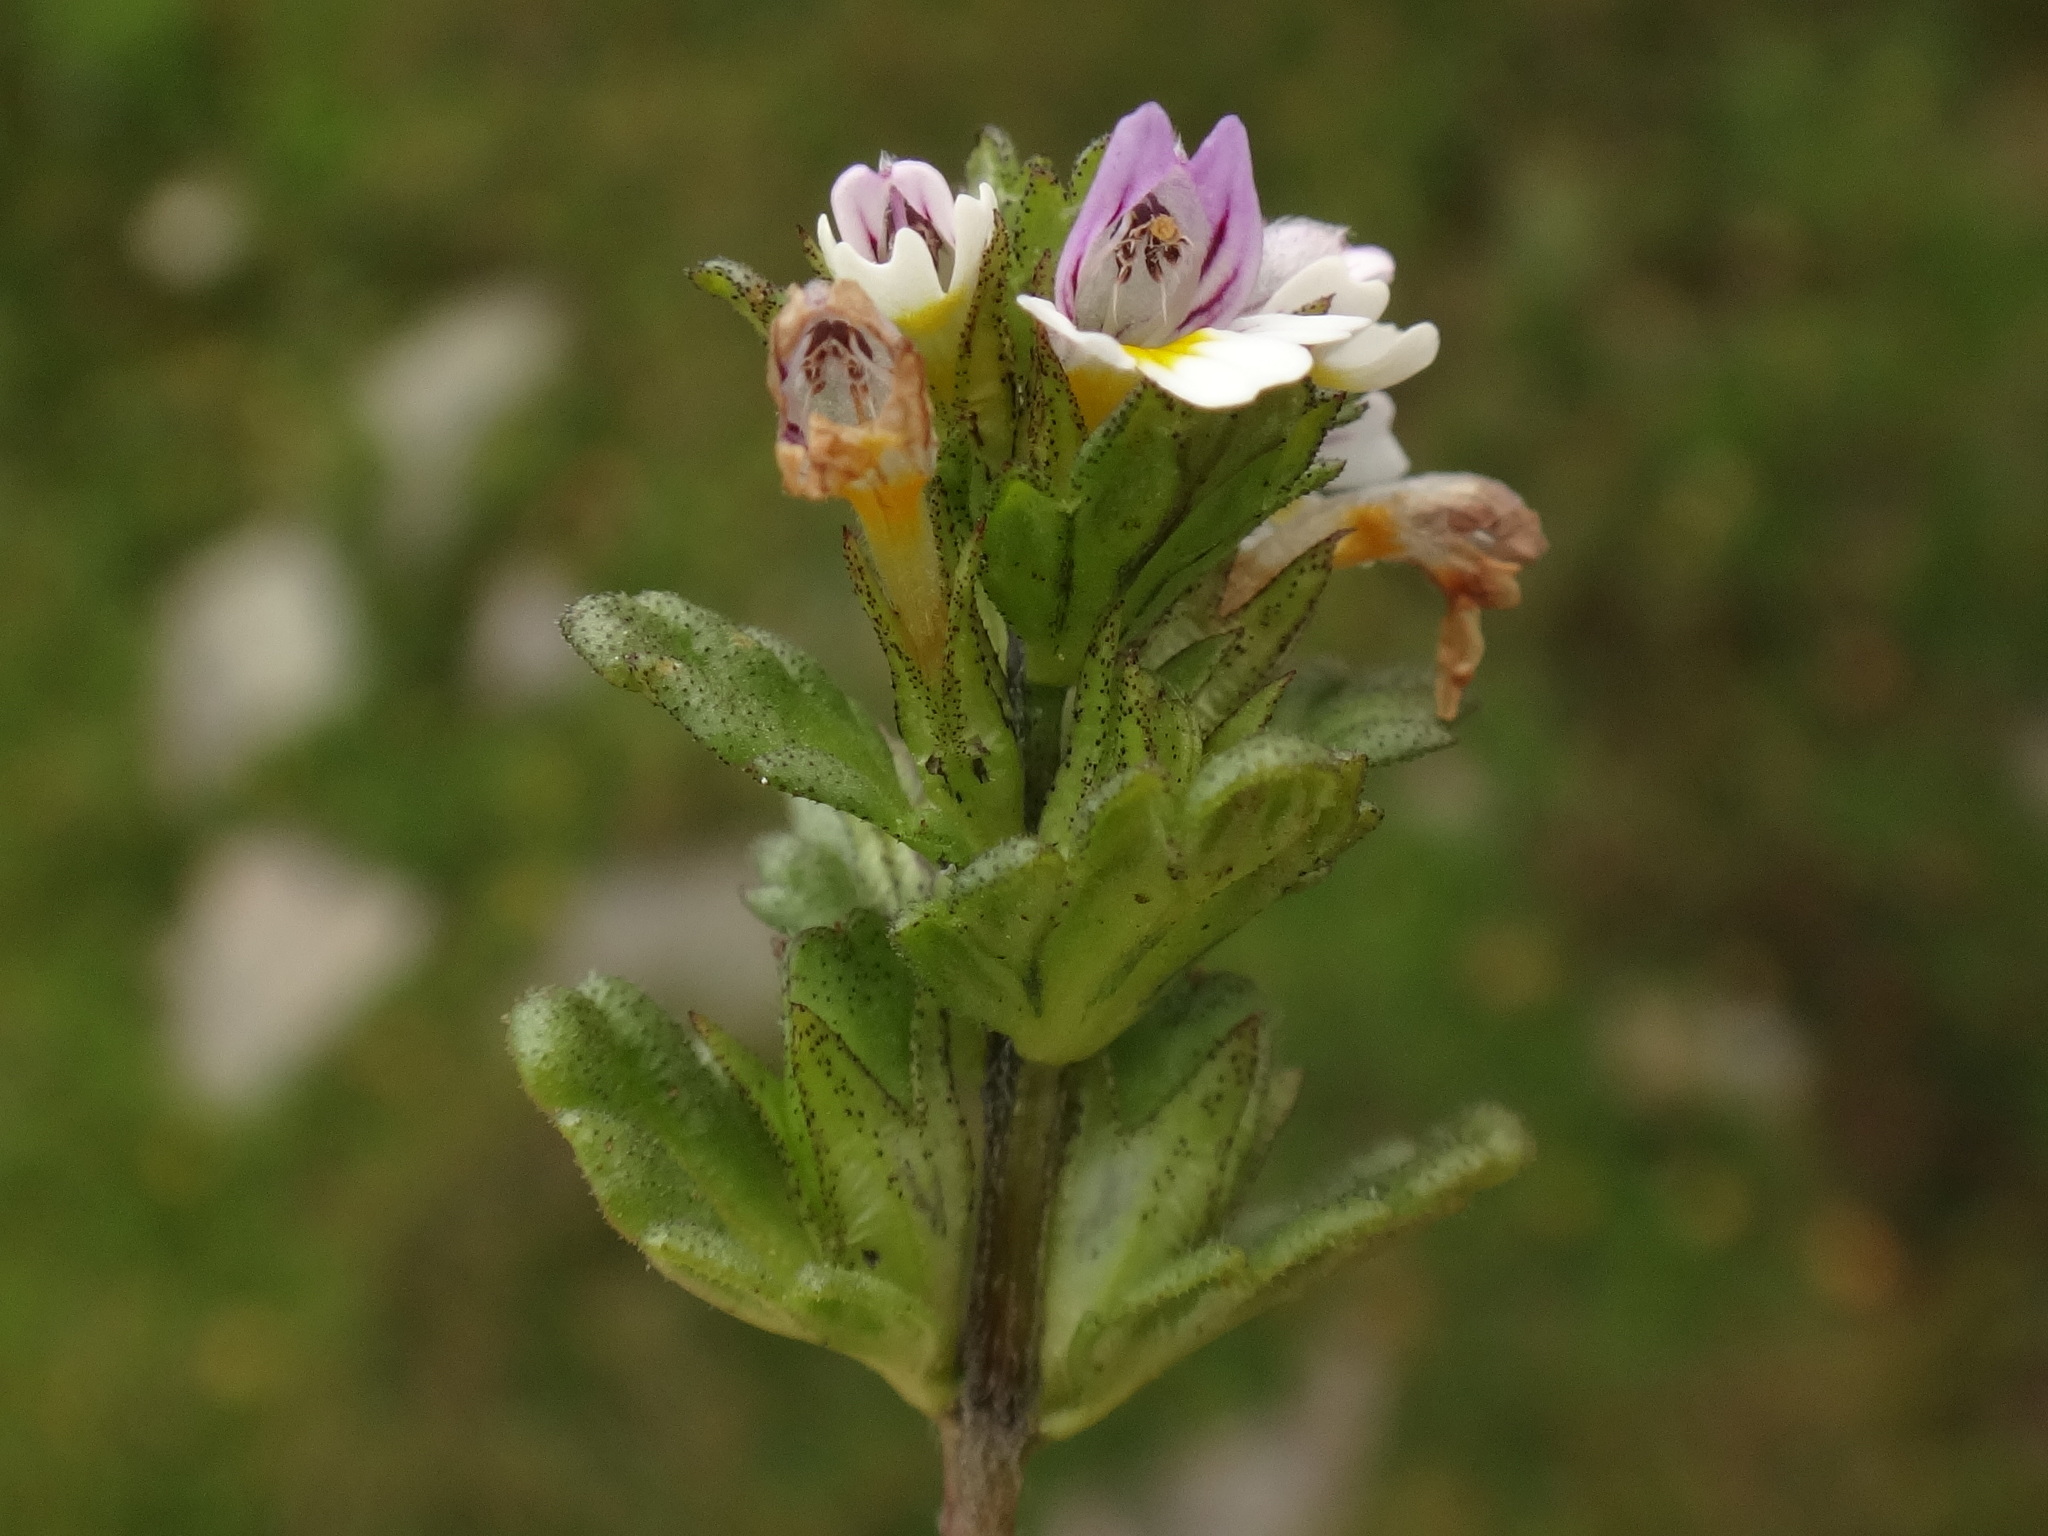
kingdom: Plantae
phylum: Tracheophyta
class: Magnoliopsida
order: Lamiales
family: Orobanchaceae
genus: Euphrasia
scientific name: Euphrasia minima
